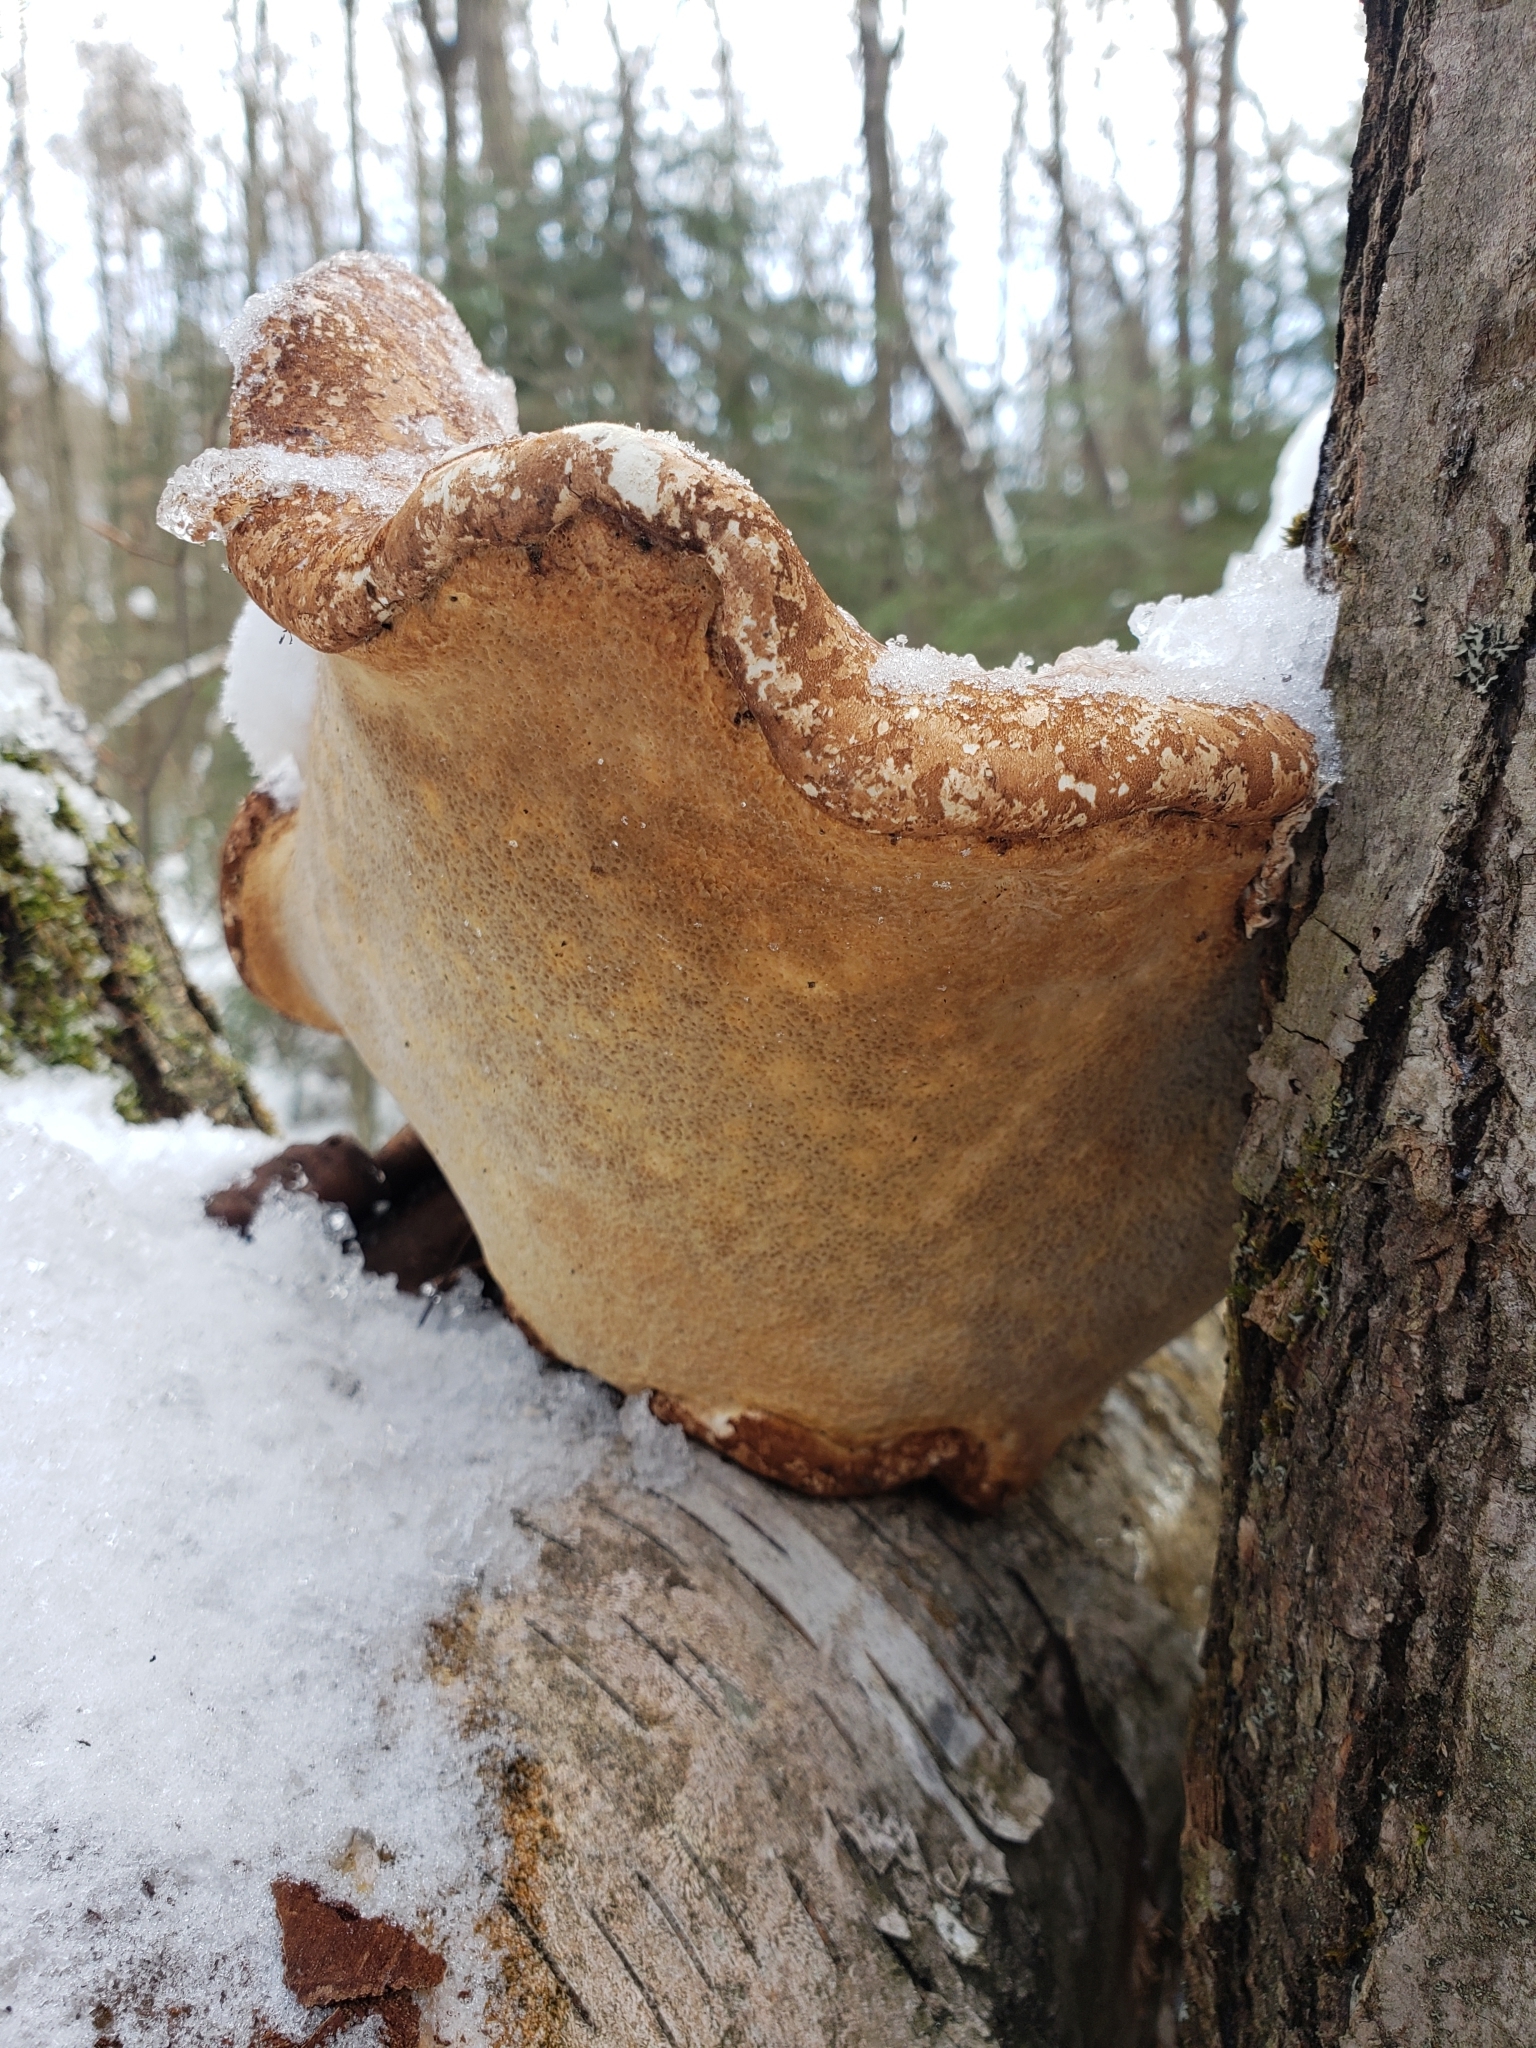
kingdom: Fungi
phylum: Basidiomycota
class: Agaricomycetes
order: Polyporales
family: Fomitopsidaceae
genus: Fomitopsis
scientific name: Fomitopsis betulina
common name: Birch polypore
